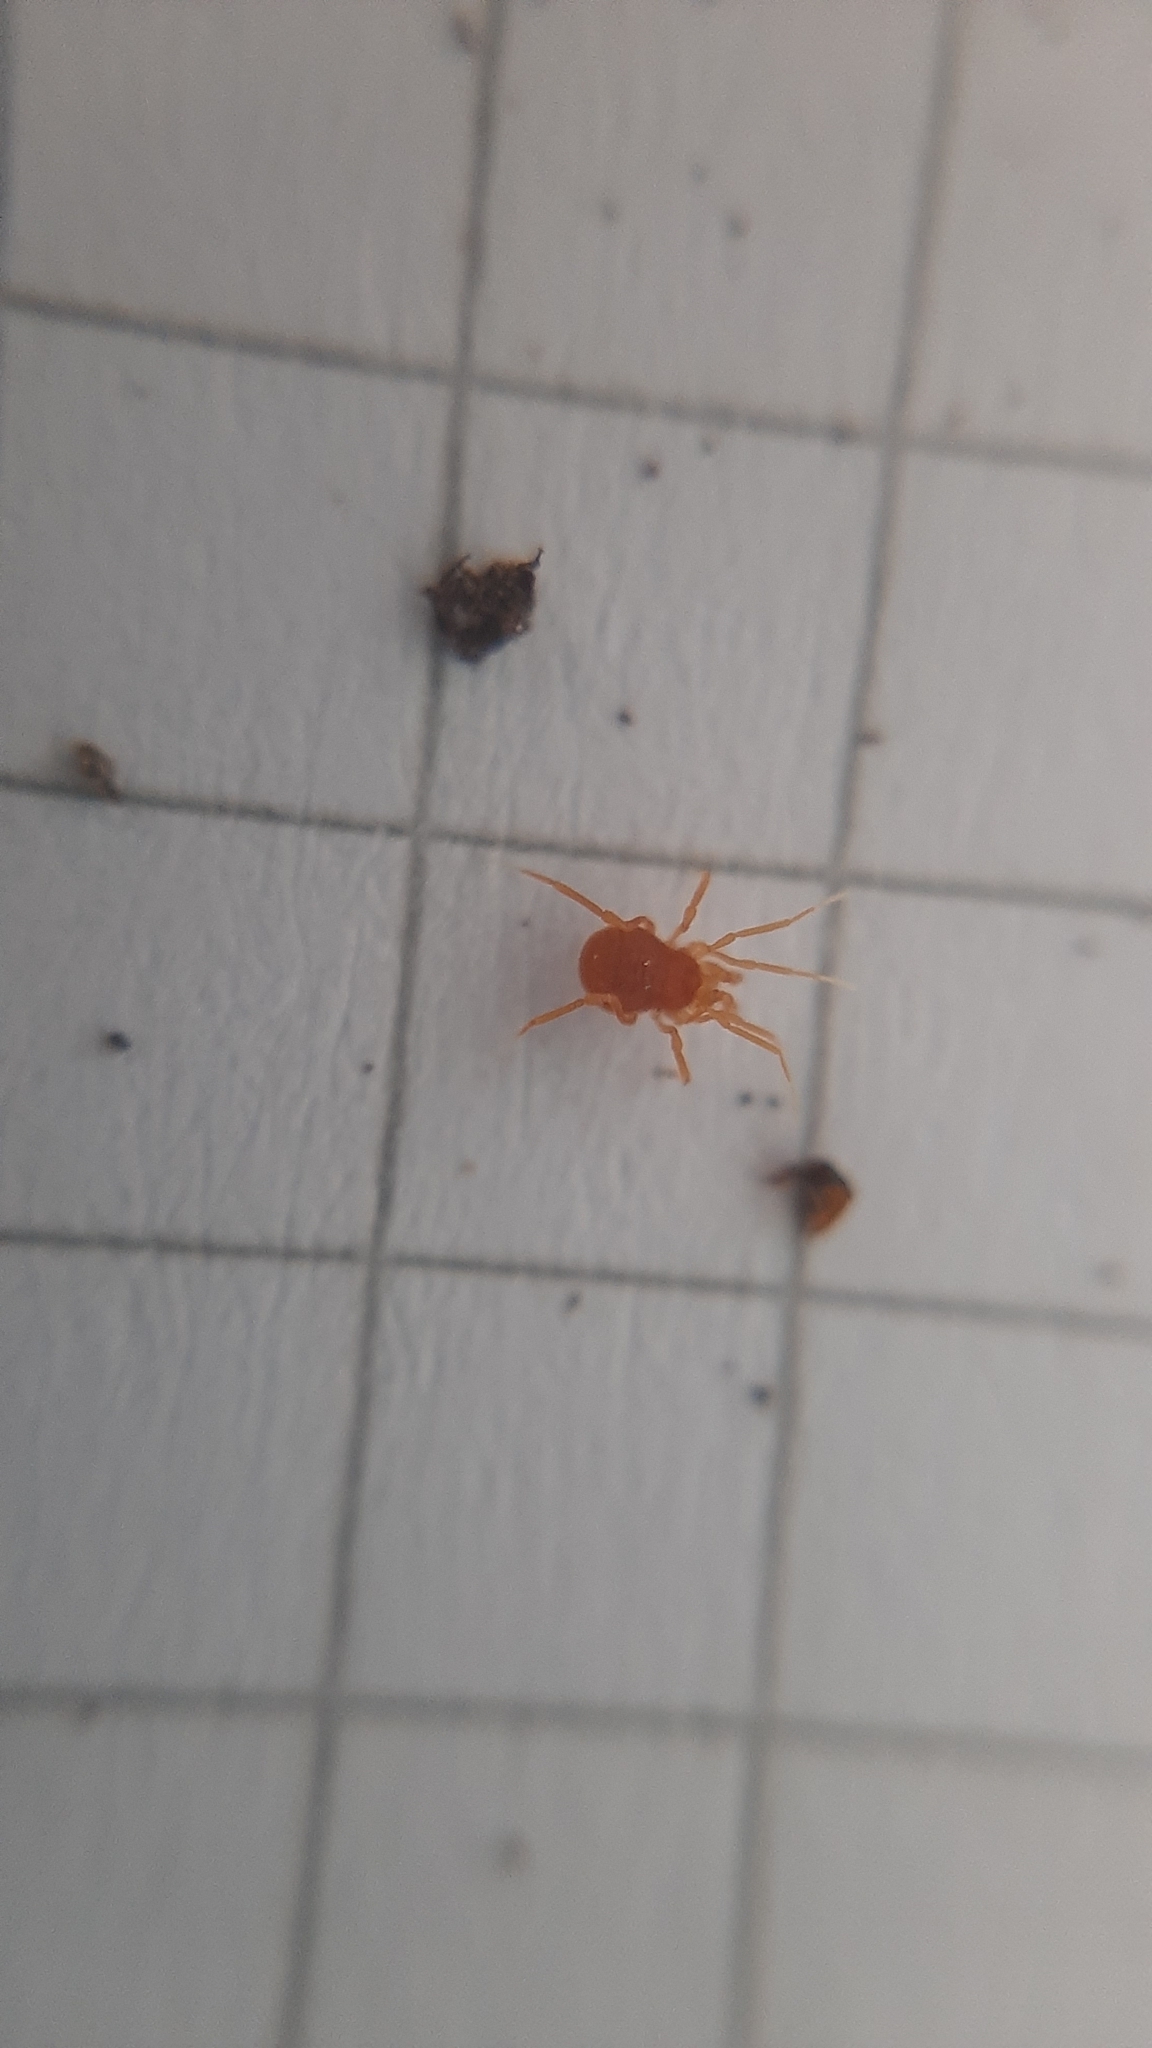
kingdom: Animalia
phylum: Arthropoda
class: Arachnida
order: Opiliones
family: Phalangodidae
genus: Scotolemon
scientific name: Scotolemon doriae
